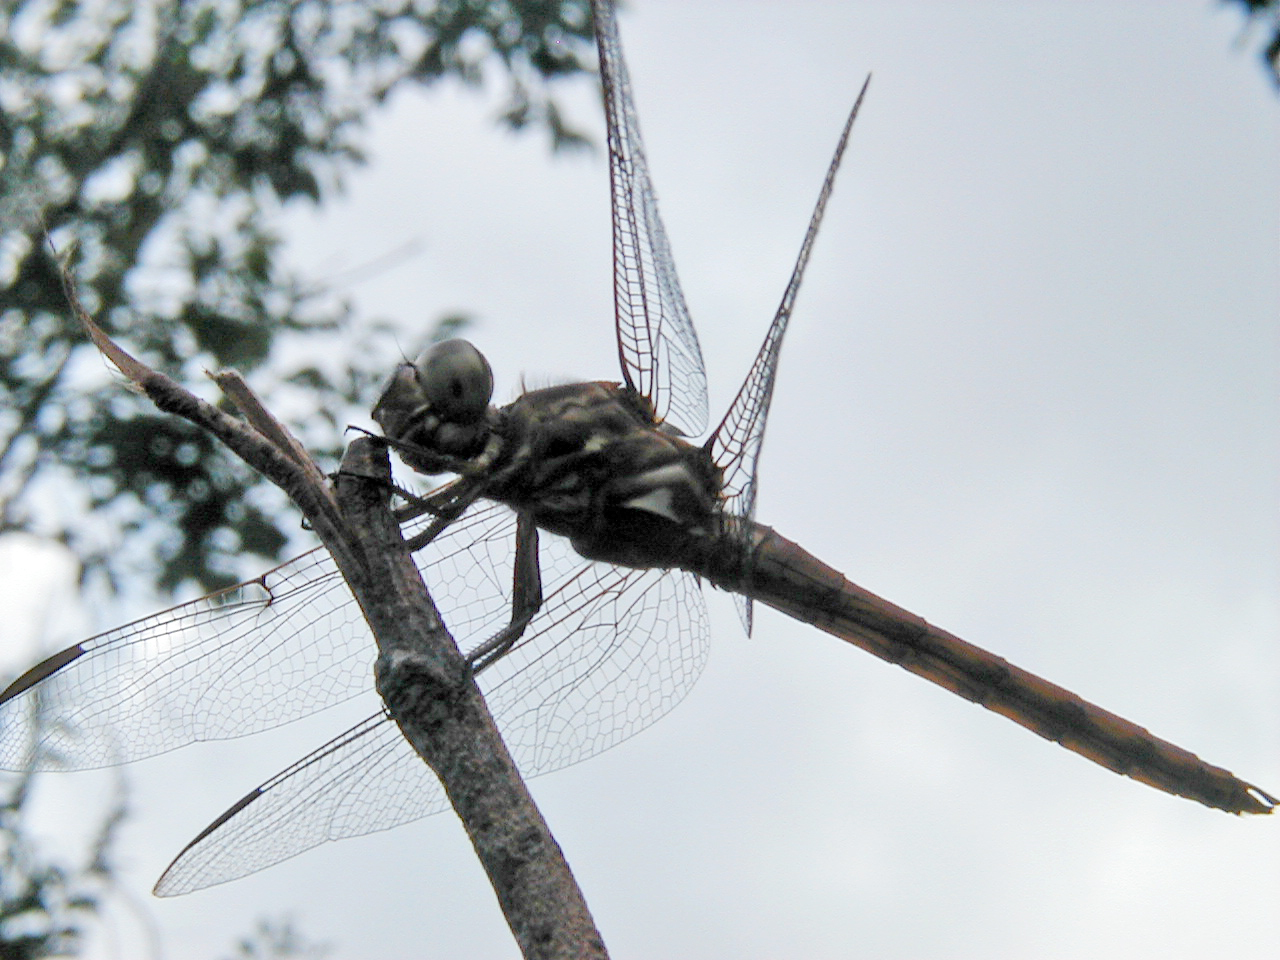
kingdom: Animalia
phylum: Arthropoda
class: Insecta
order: Odonata
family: Libellulidae
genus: Orthemis
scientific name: Orthemis ferruginea
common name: Roseate skimmer
